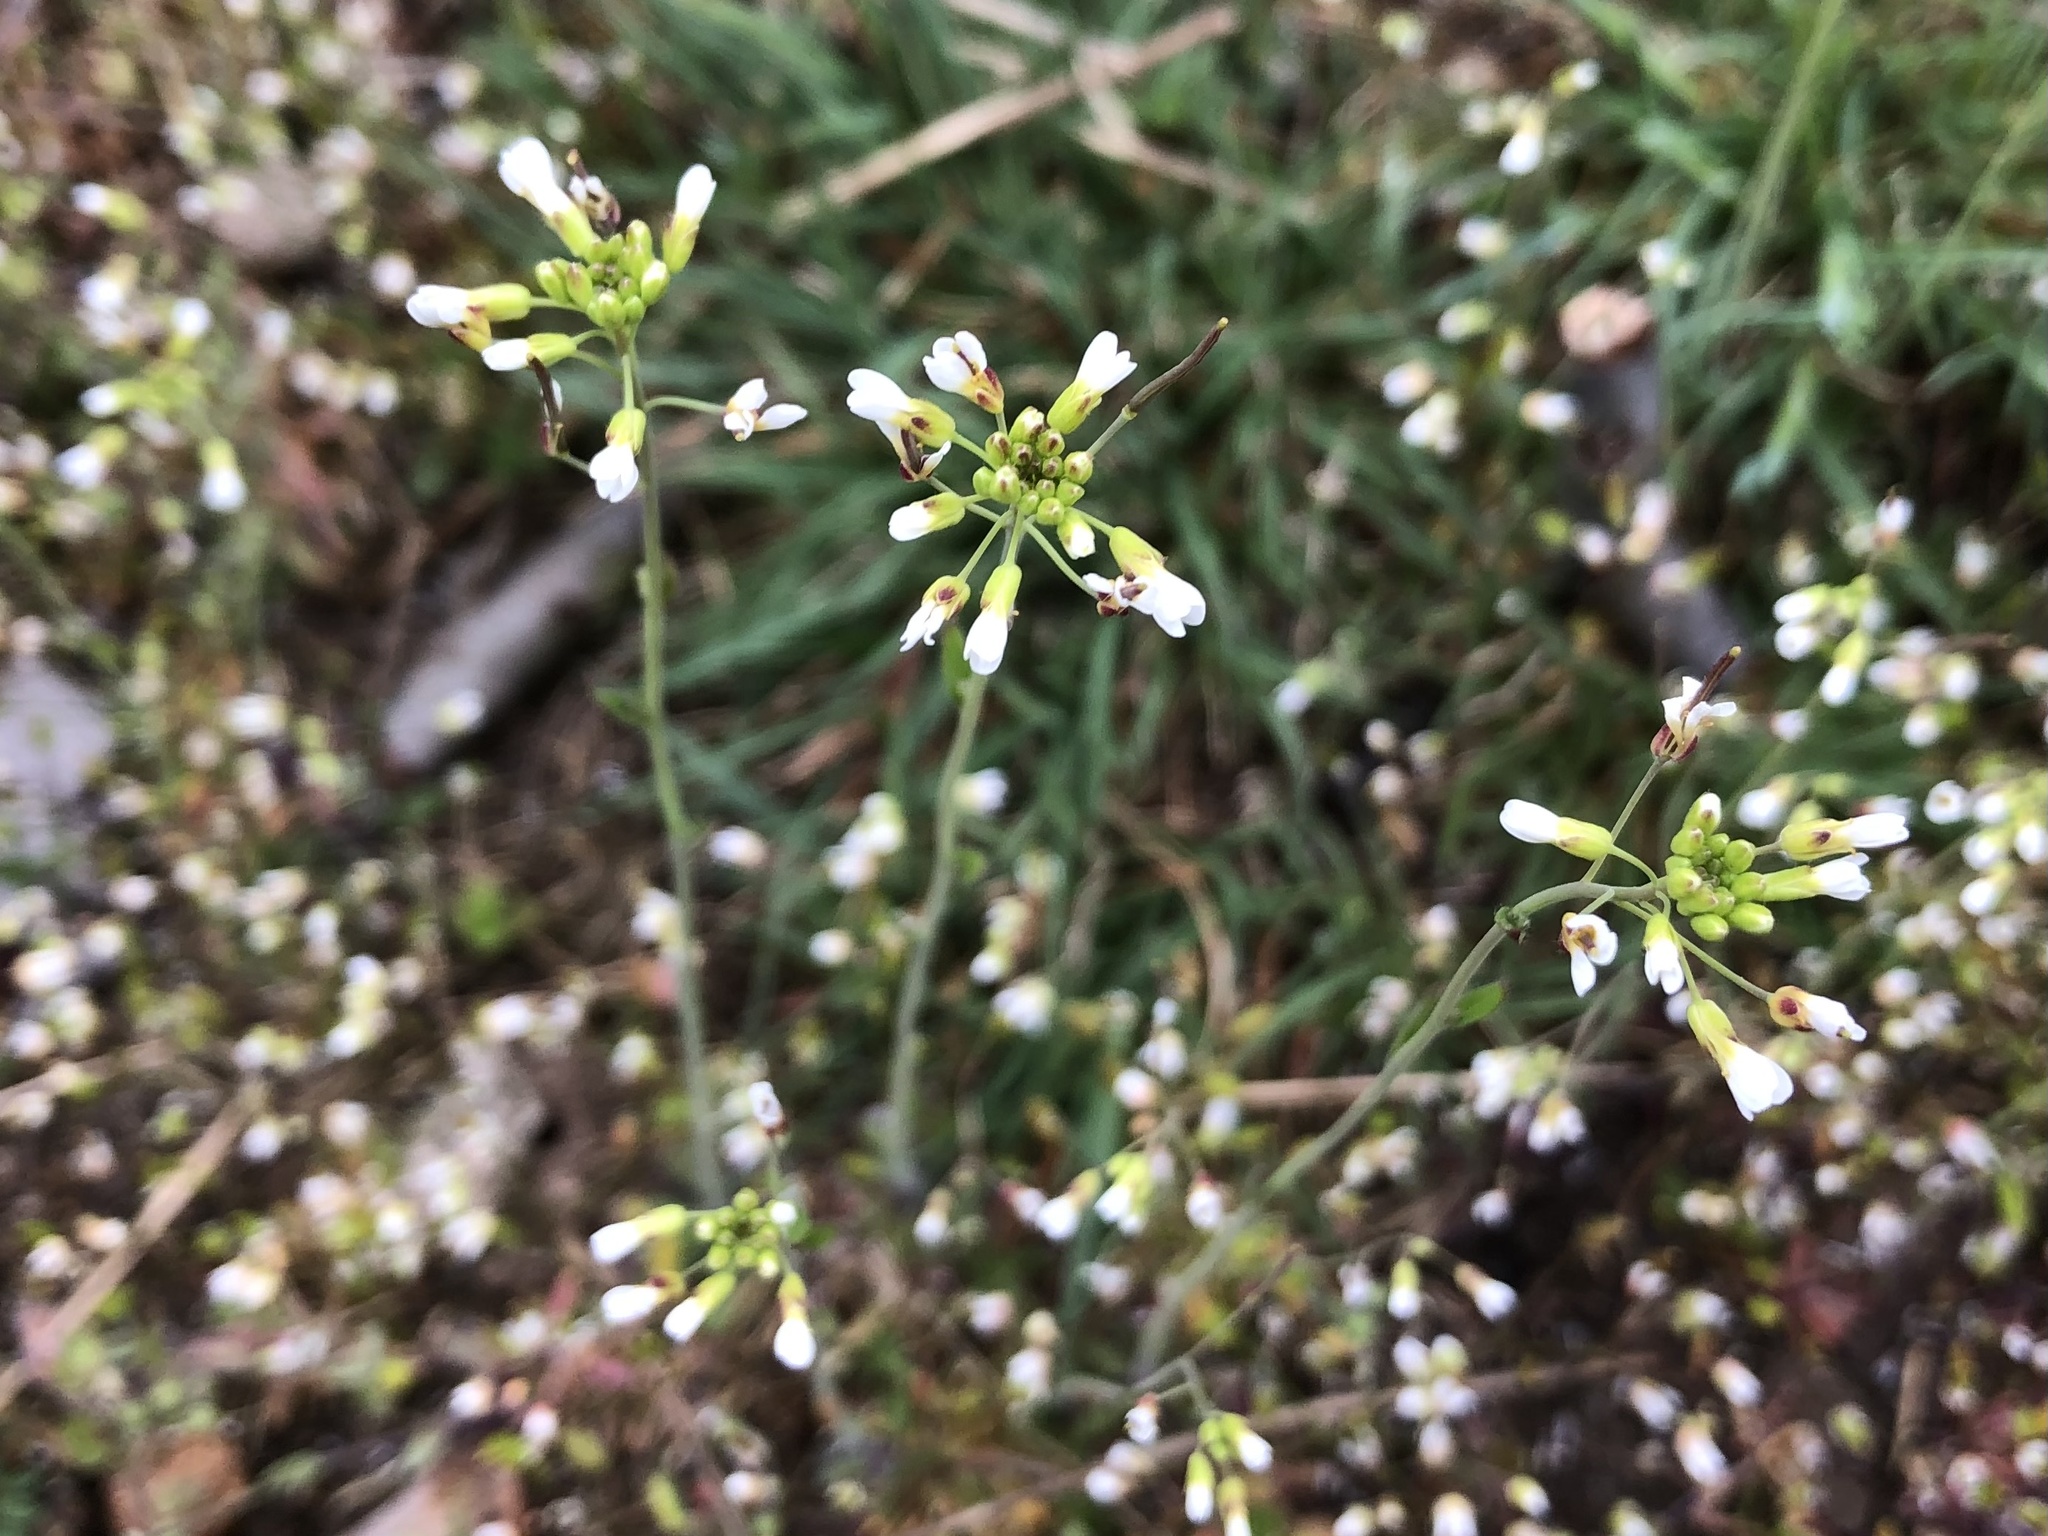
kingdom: Plantae
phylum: Tracheophyta
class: Magnoliopsida
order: Brassicales
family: Brassicaceae
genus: Arabidopsis
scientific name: Arabidopsis thaliana
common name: Thale cress
